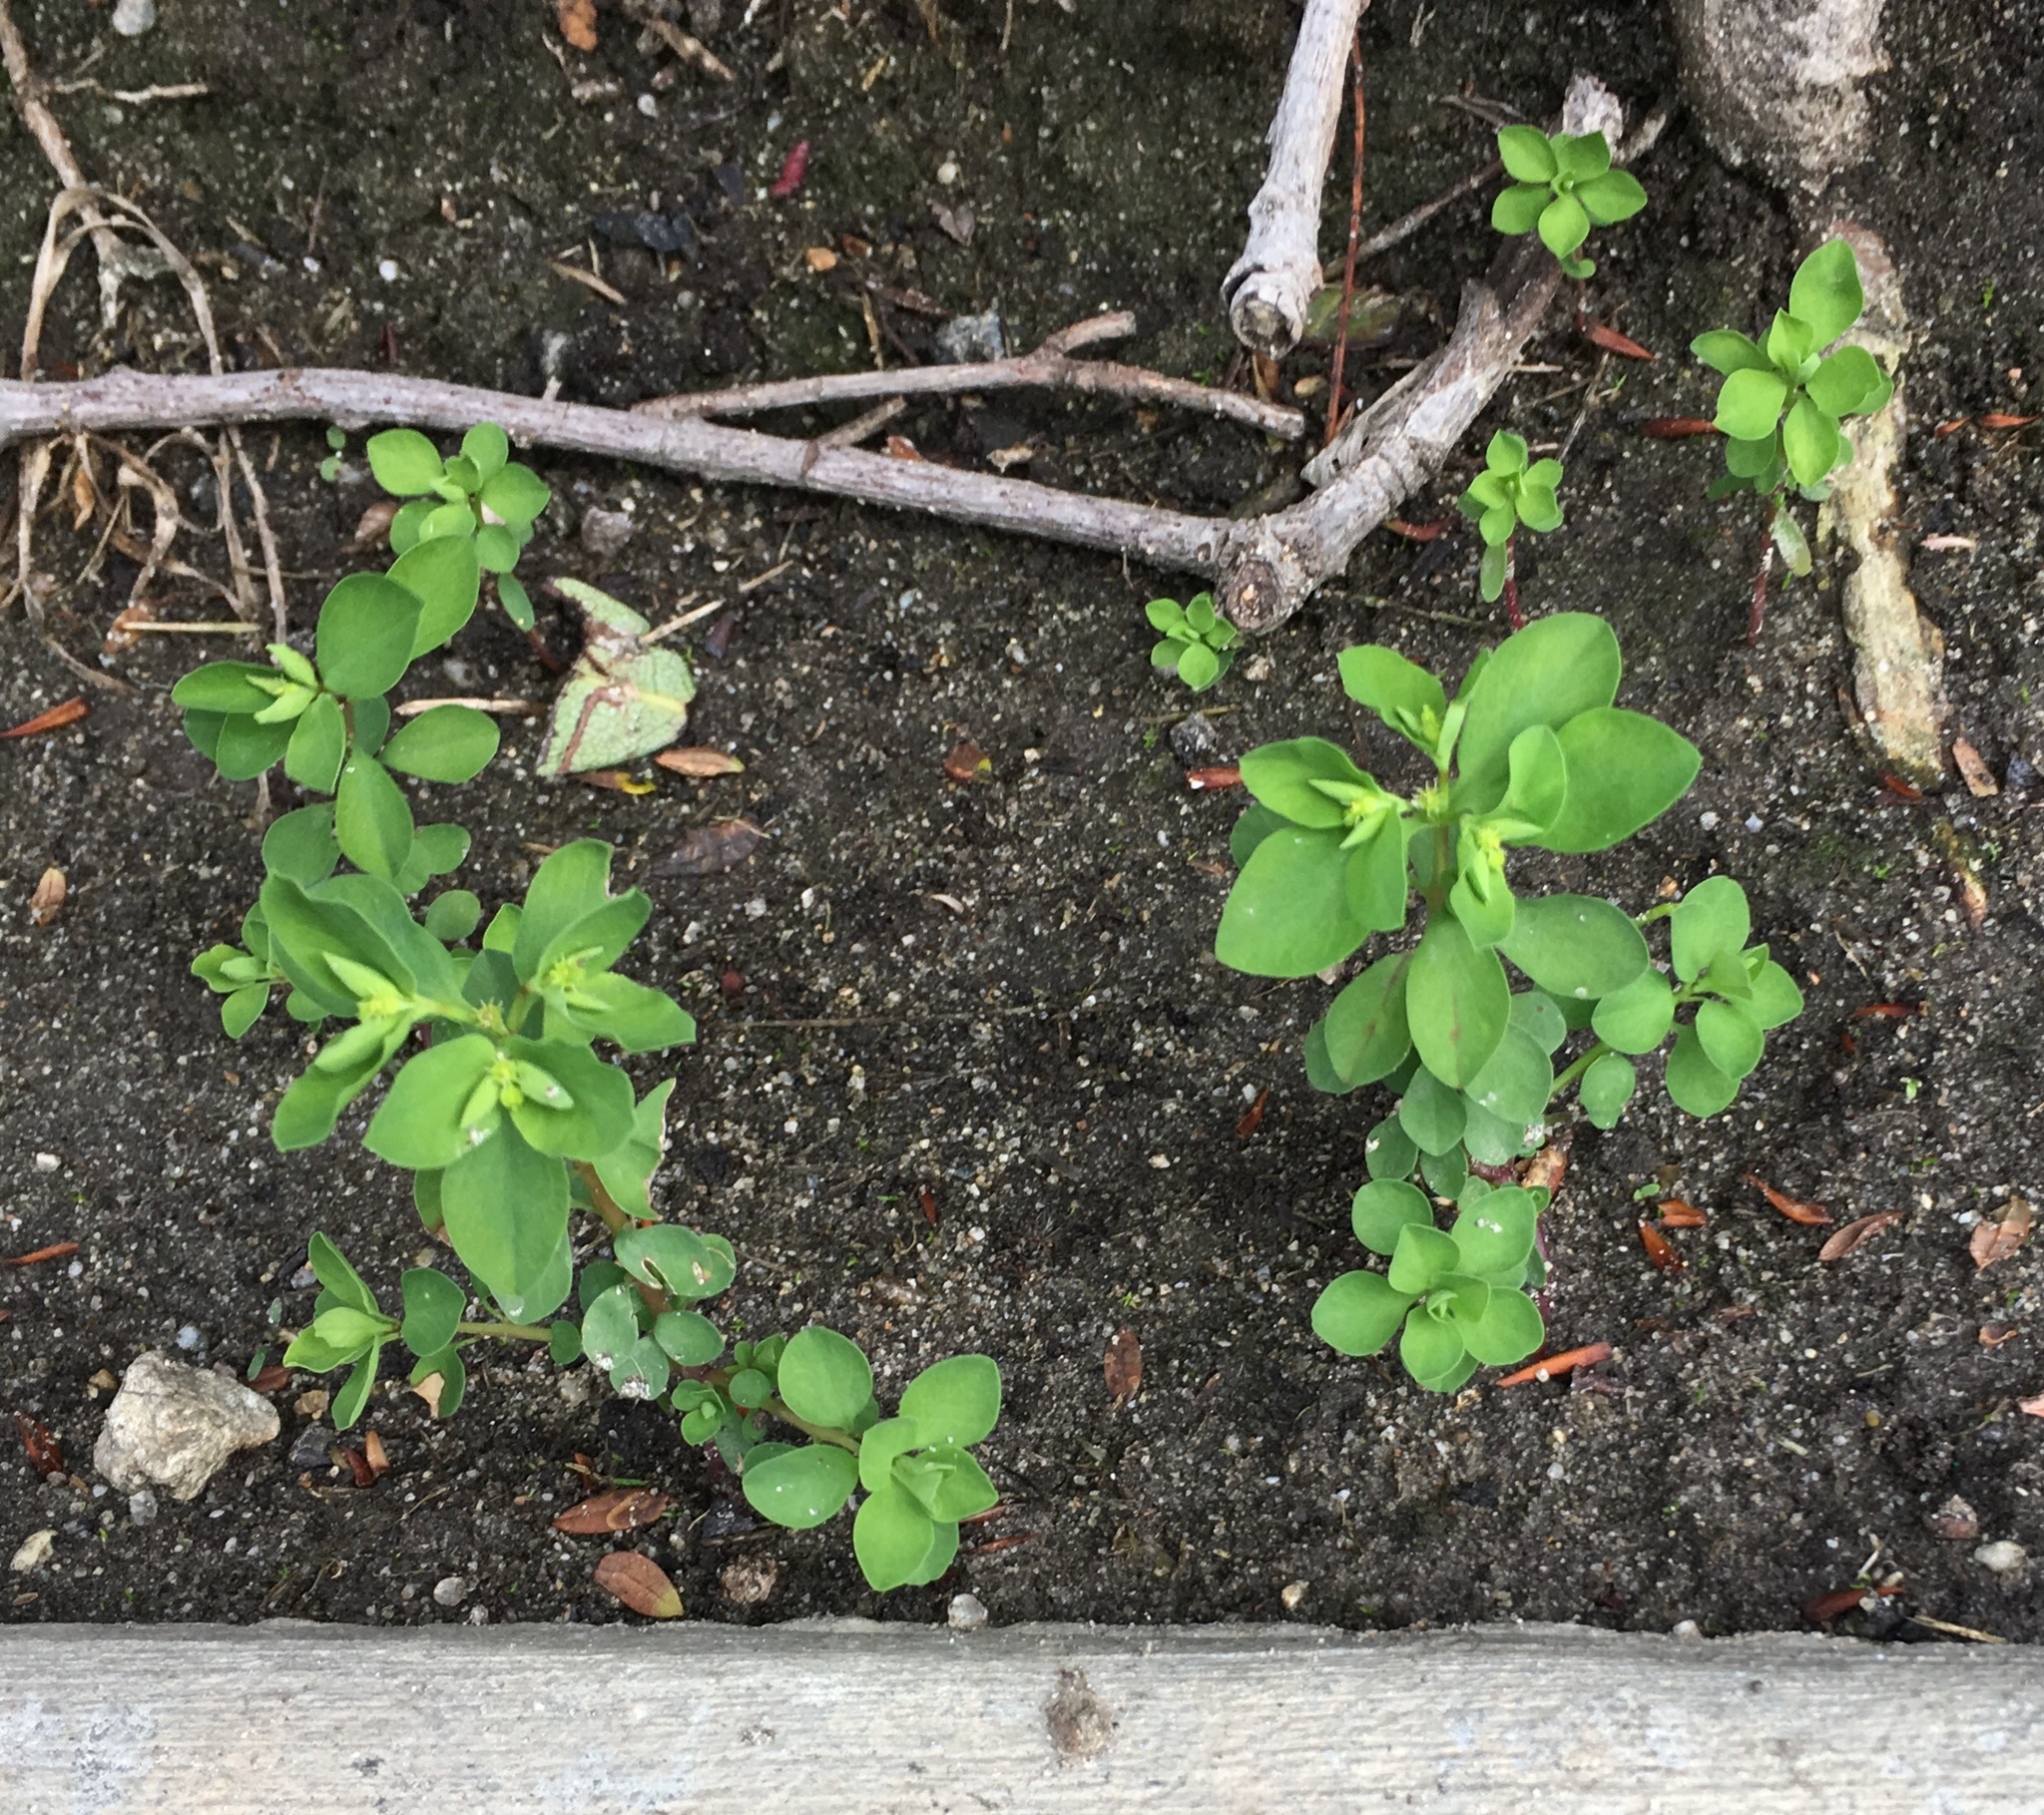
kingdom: Plantae
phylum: Tracheophyta
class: Magnoliopsida
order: Malpighiales
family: Euphorbiaceae
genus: Euphorbia
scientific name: Euphorbia peplus
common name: Petty spurge
